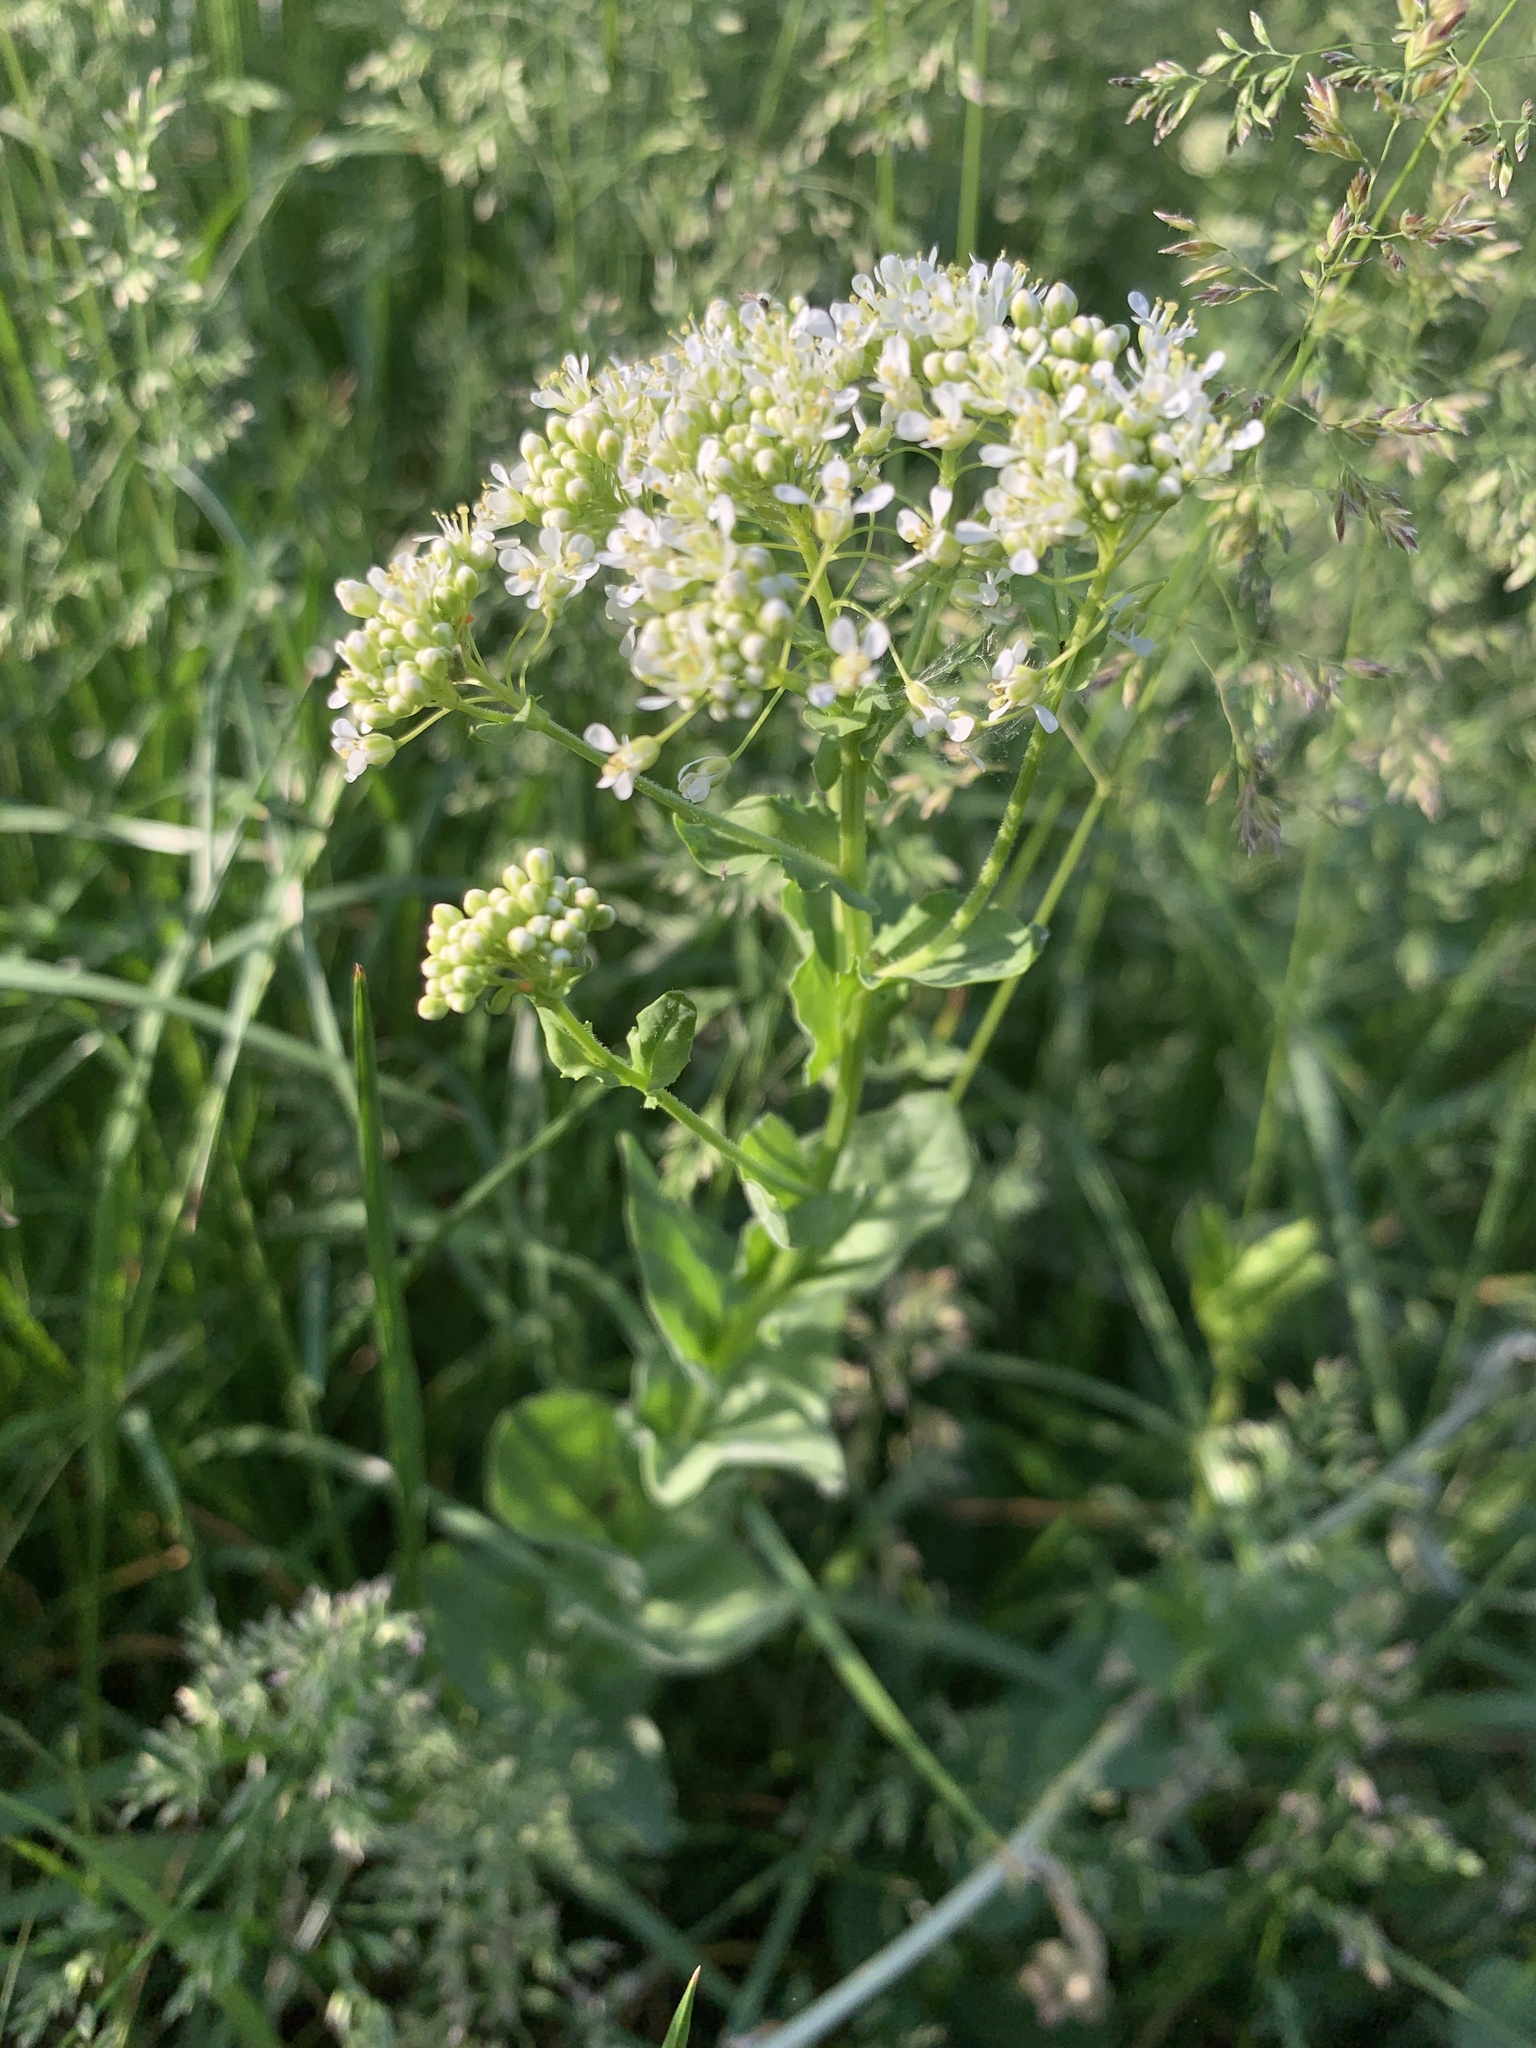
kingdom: Plantae
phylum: Tracheophyta
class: Magnoliopsida
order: Brassicales
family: Brassicaceae
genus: Lepidium
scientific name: Lepidium draba
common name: Hoary cress
